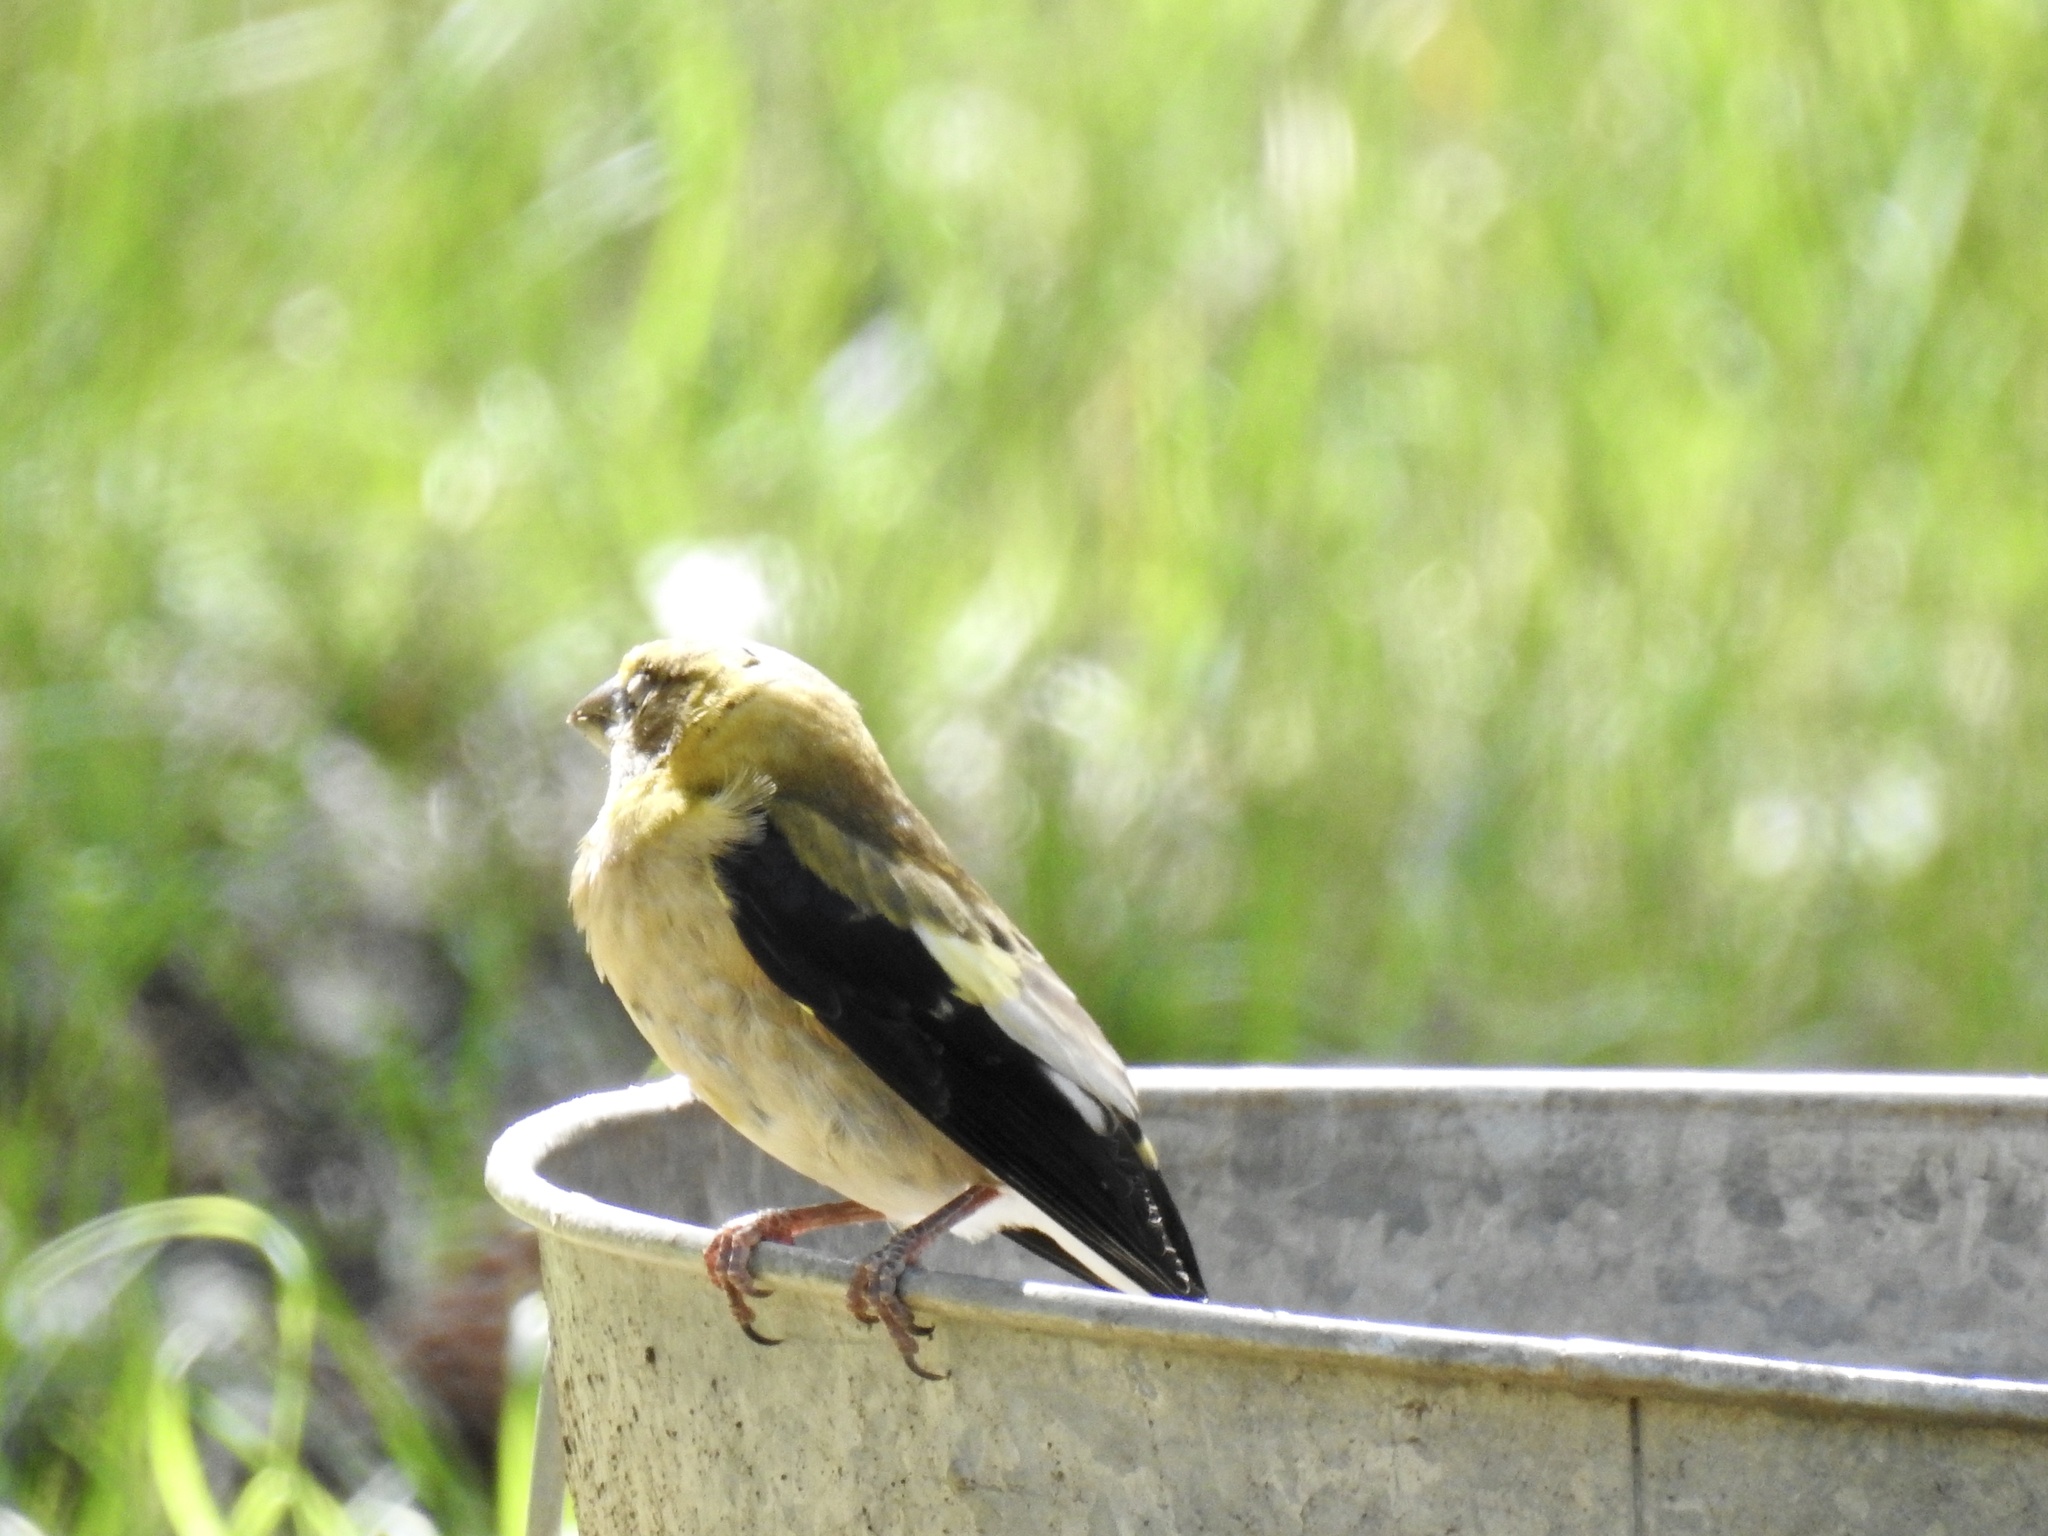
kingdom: Animalia
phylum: Chordata
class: Aves
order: Passeriformes
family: Fringillidae
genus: Hesperiphona
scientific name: Hesperiphona vespertina
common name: Evening grosbeak
